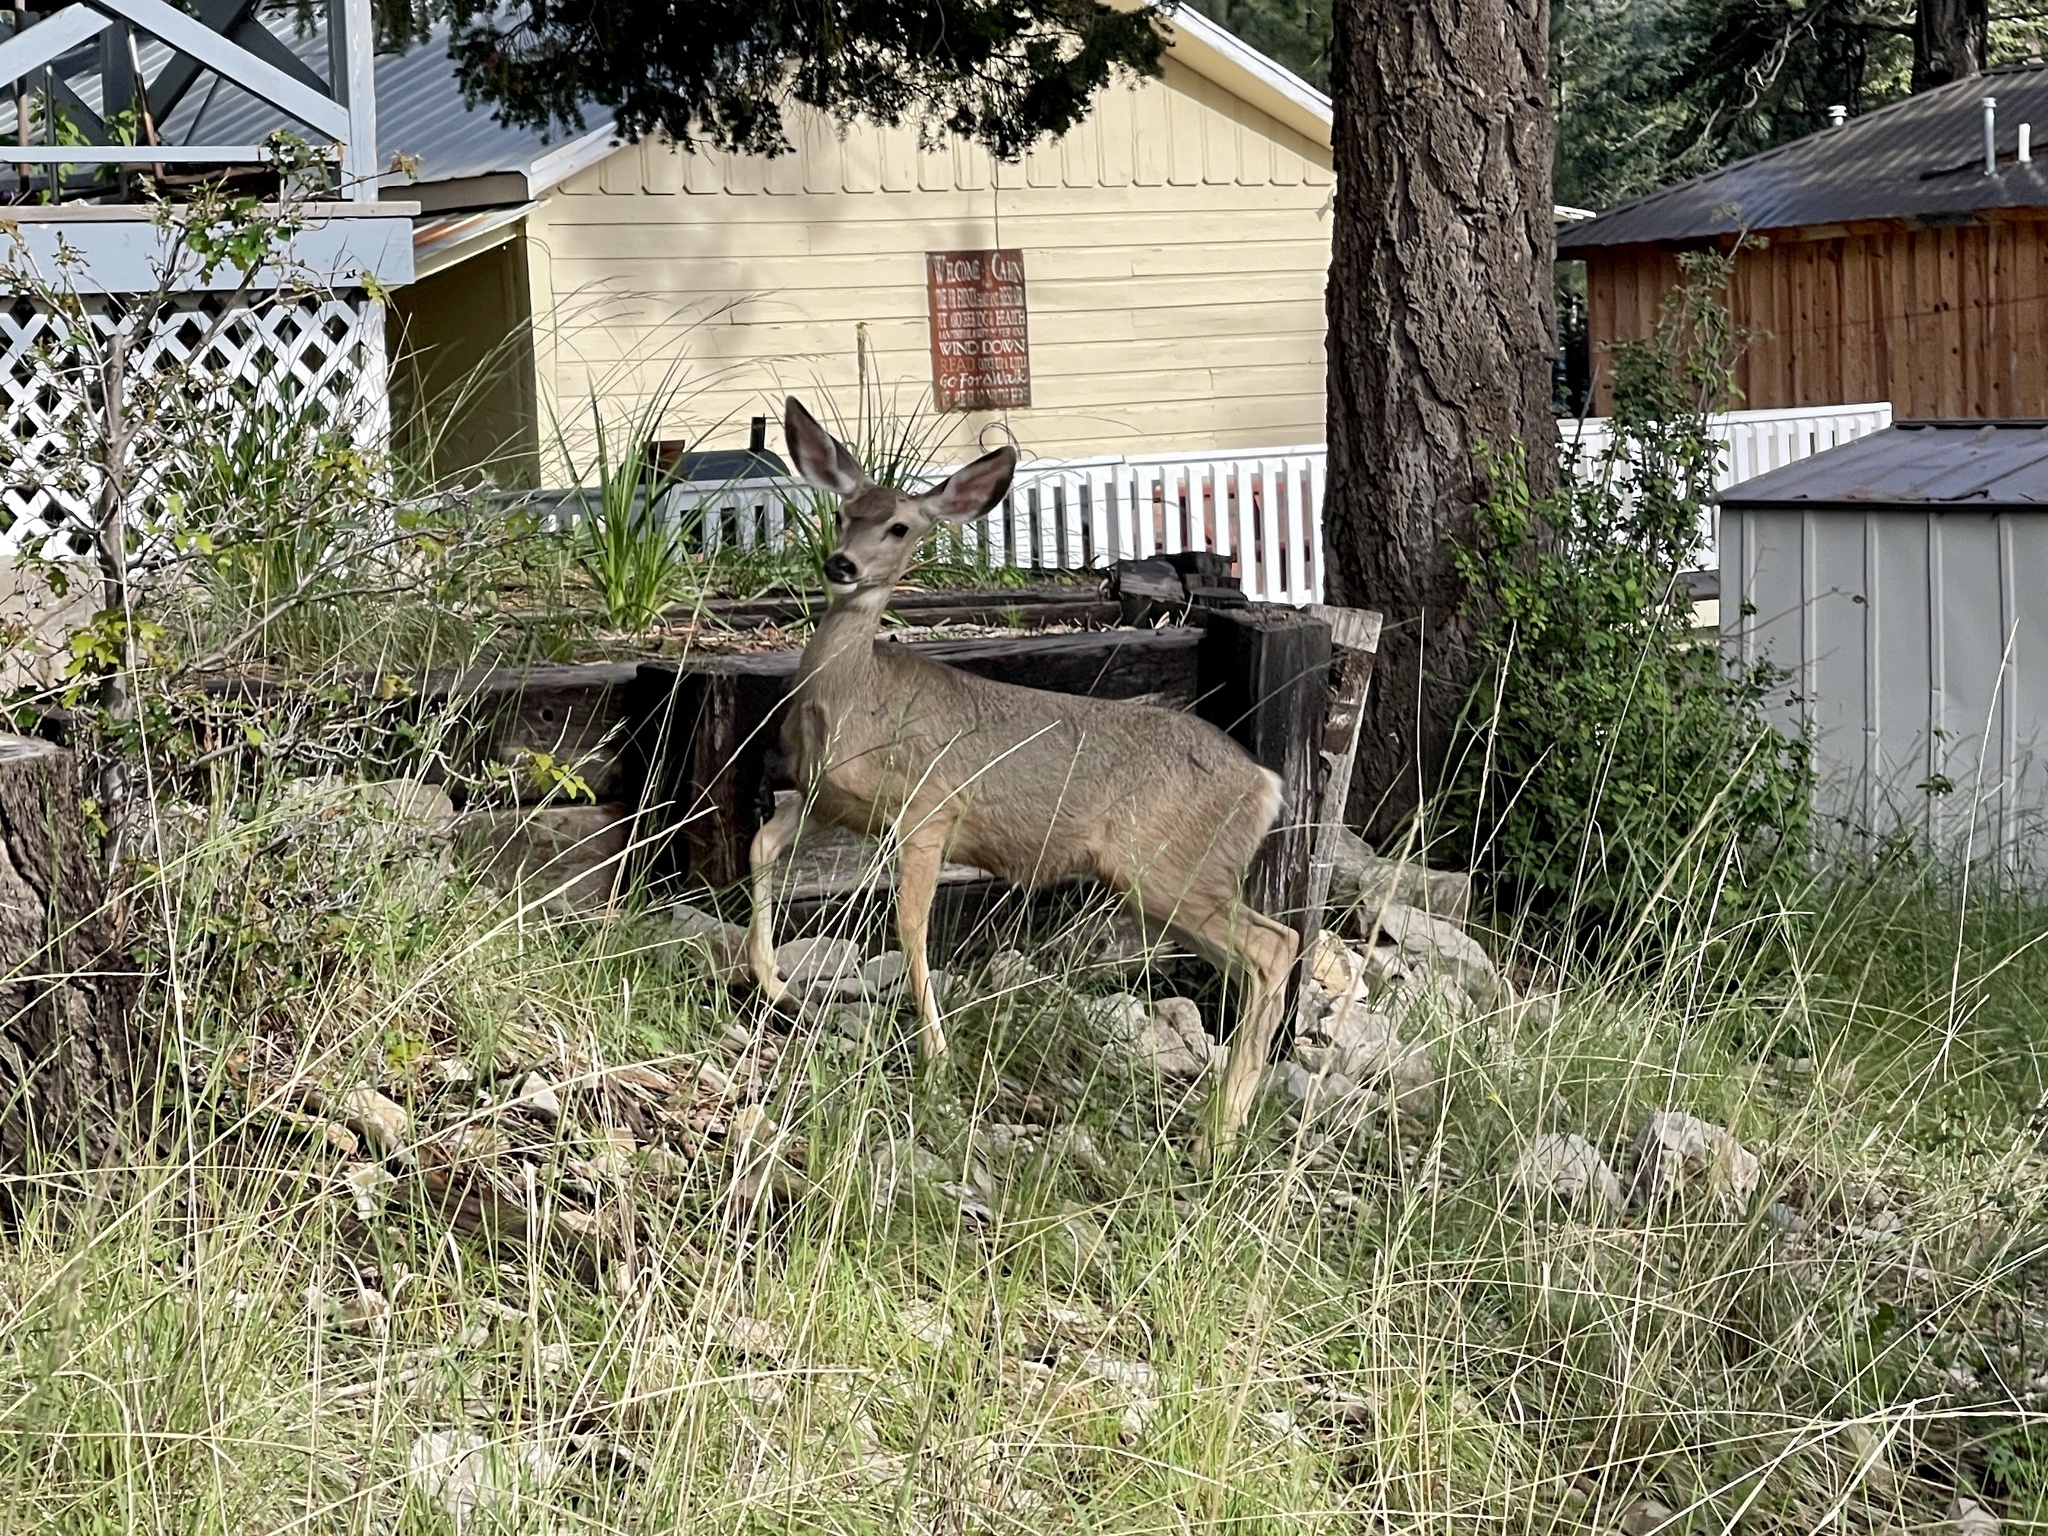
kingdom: Animalia
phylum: Chordata
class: Mammalia
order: Artiodactyla
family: Cervidae
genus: Odocoileus
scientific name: Odocoileus hemionus
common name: Mule deer
